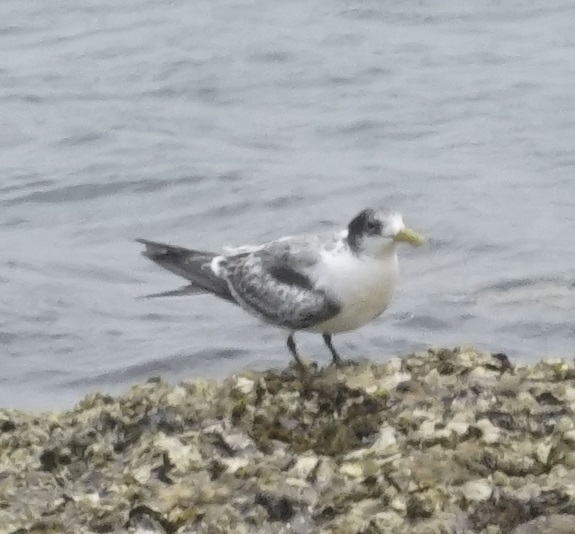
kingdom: Animalia
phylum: Chordata
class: Aves
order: Charadriiformes
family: Laridae
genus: Thalasseus
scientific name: Thalasseus bergii
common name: Greater crested tern
